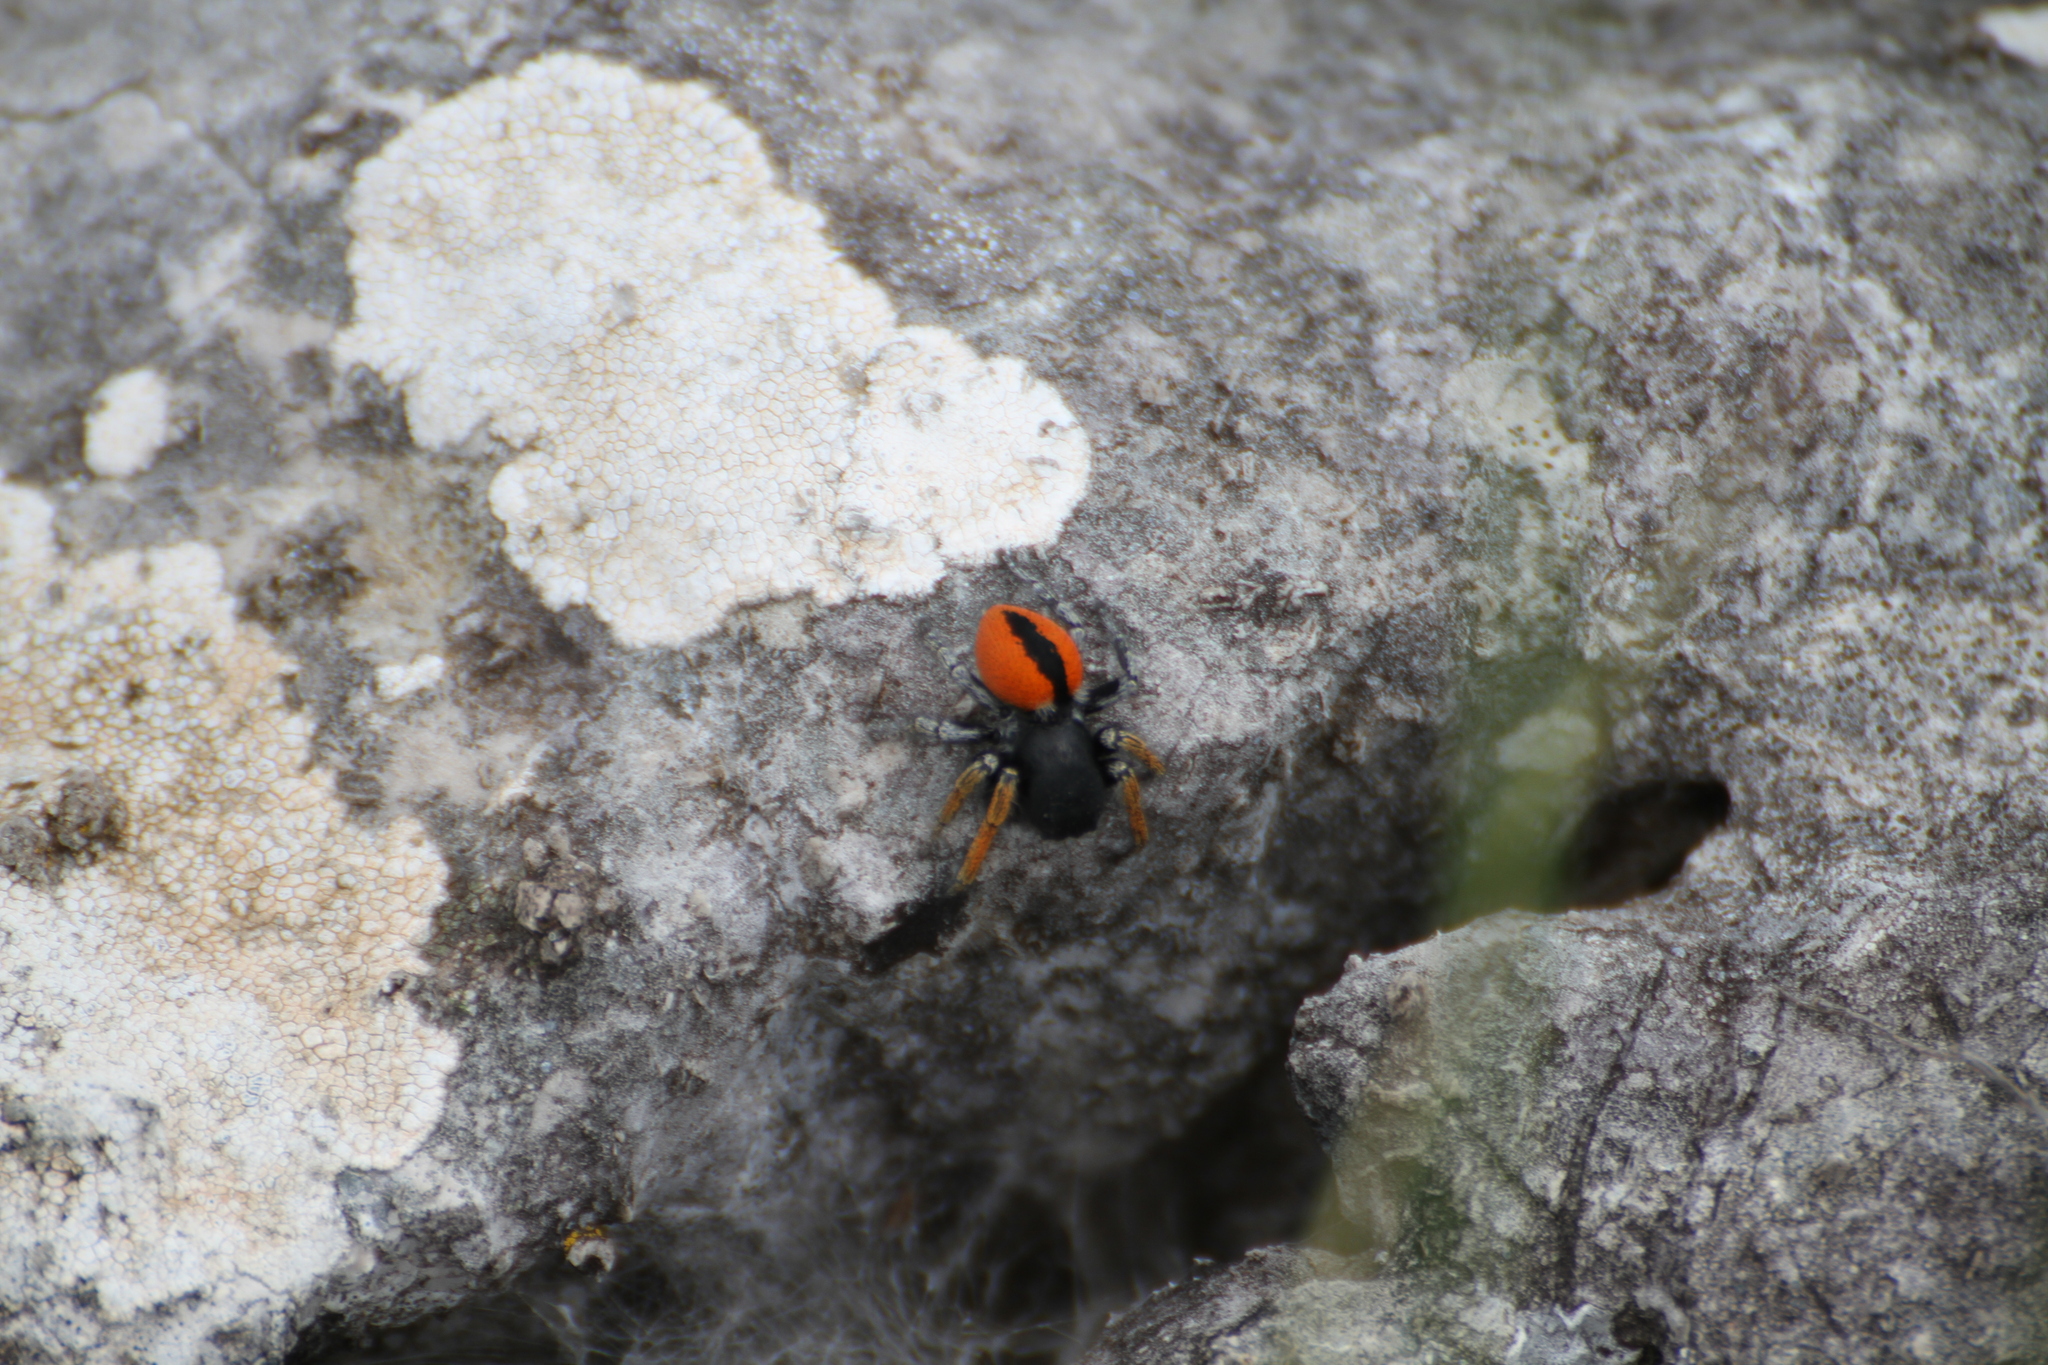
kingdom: Animalia
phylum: Arthropoda
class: Arachnida
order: Araneae
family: Salticidae
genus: Philaeus
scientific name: Philaeus chrysops
